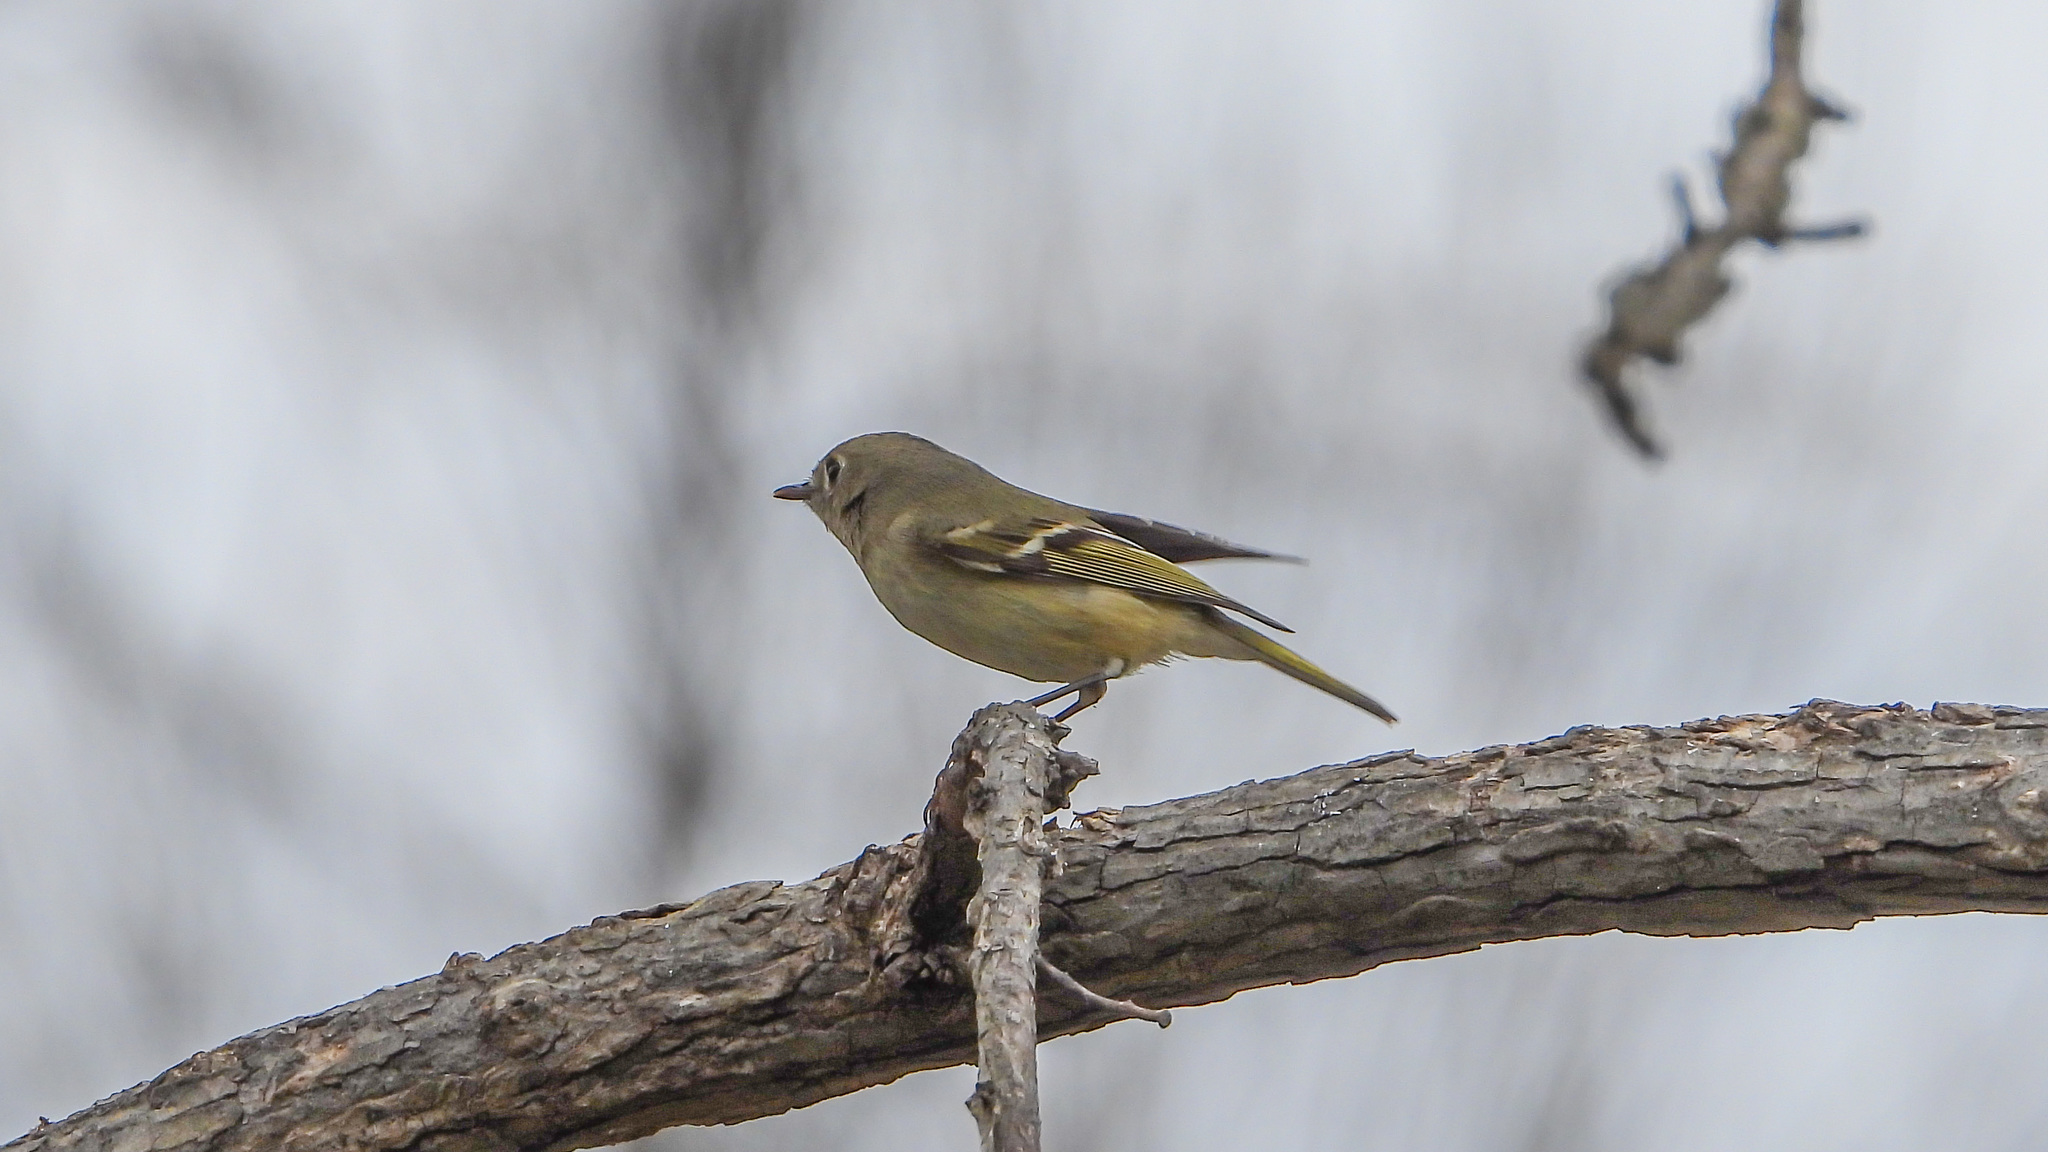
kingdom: Animalia
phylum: Chordata
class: Aves
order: Passeriformes
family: Regulidae
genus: Regulus
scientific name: Regulus calendula
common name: Ruby-crowned kinglet
